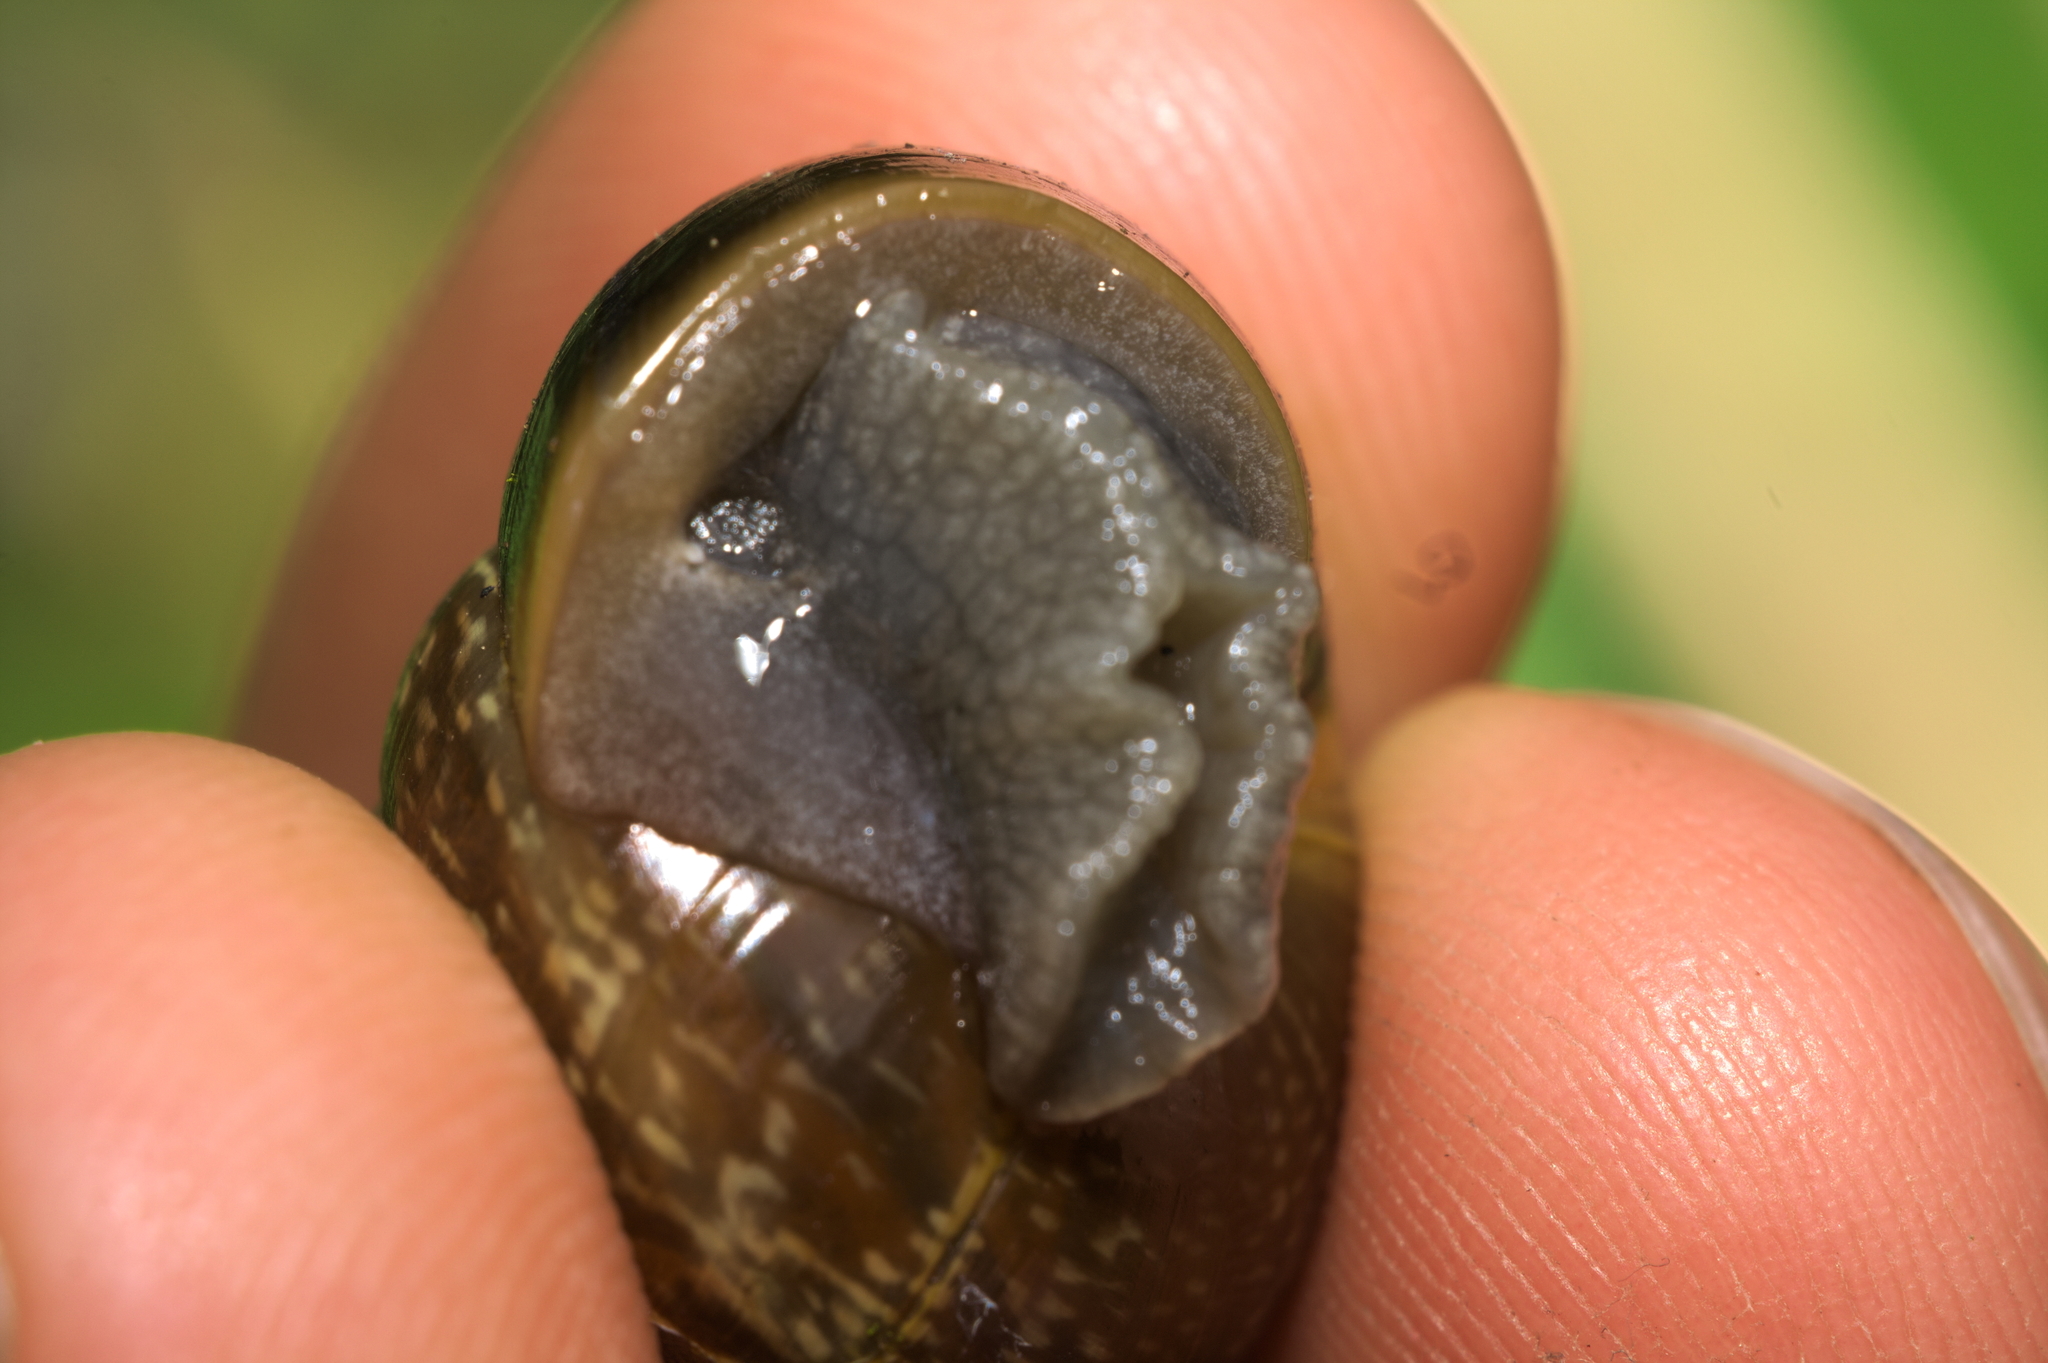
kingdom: Animalia
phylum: Mollusca
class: Gastropoda
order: Stylommatophora
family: Helicidae
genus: Arianta
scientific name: Arianta arbustorum
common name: Copse snail
